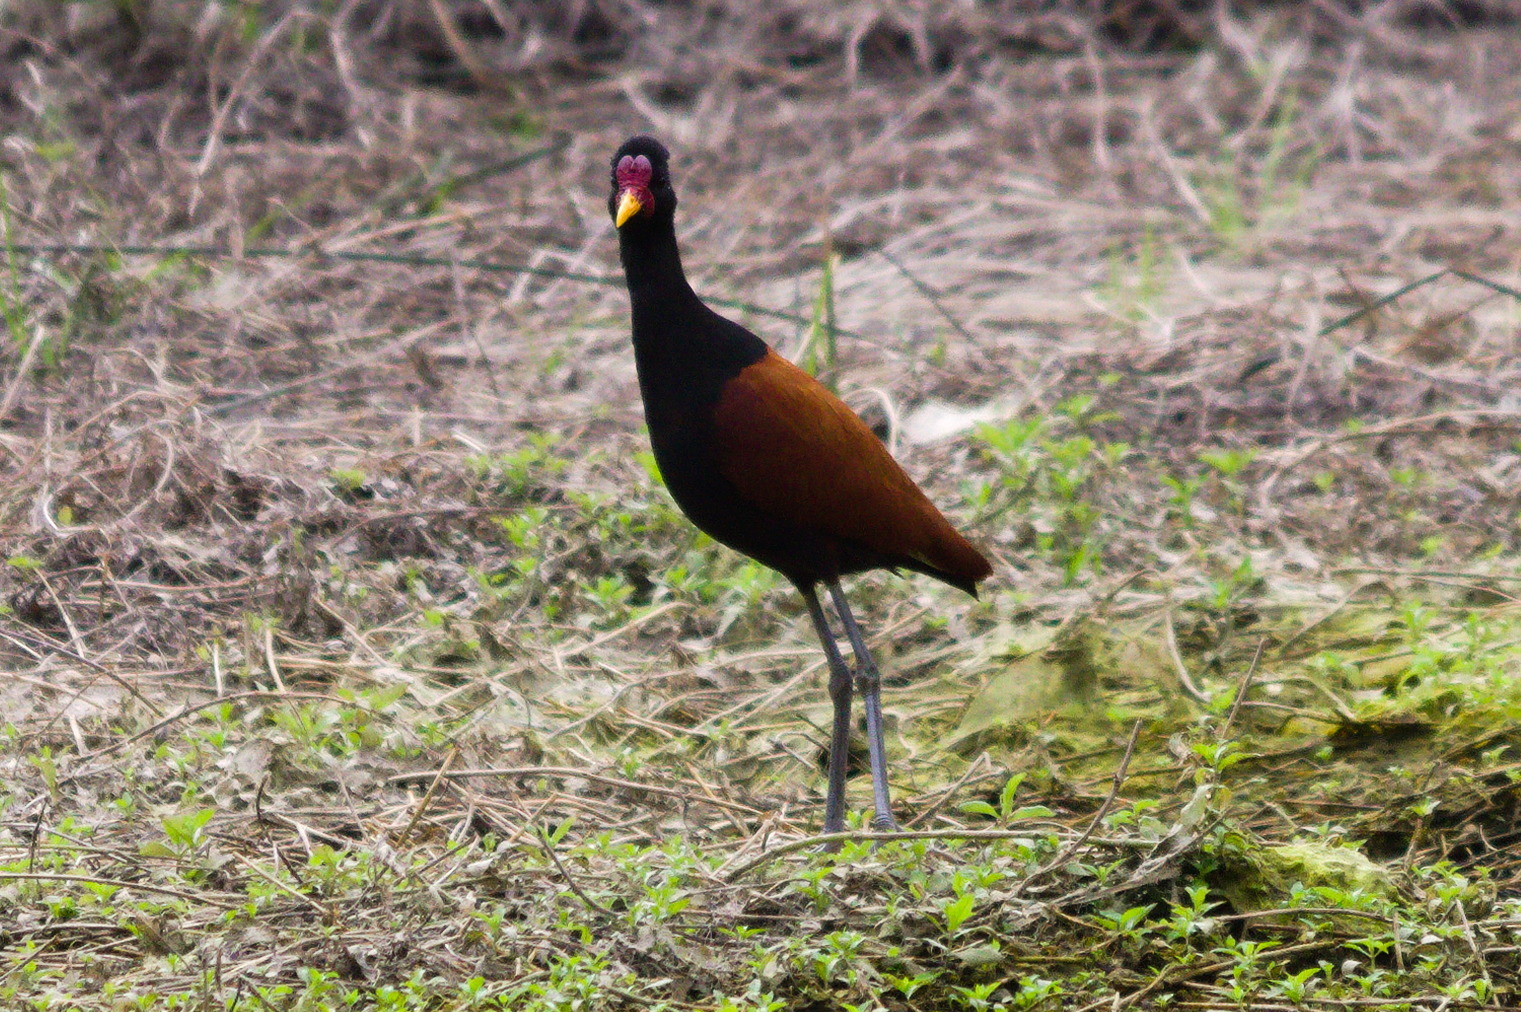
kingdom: Animalia
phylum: Chordata
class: Aves
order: Charadriiformes
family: Jacanidae
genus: Jacana
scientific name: Jacana jacana
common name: Wattled jacana
